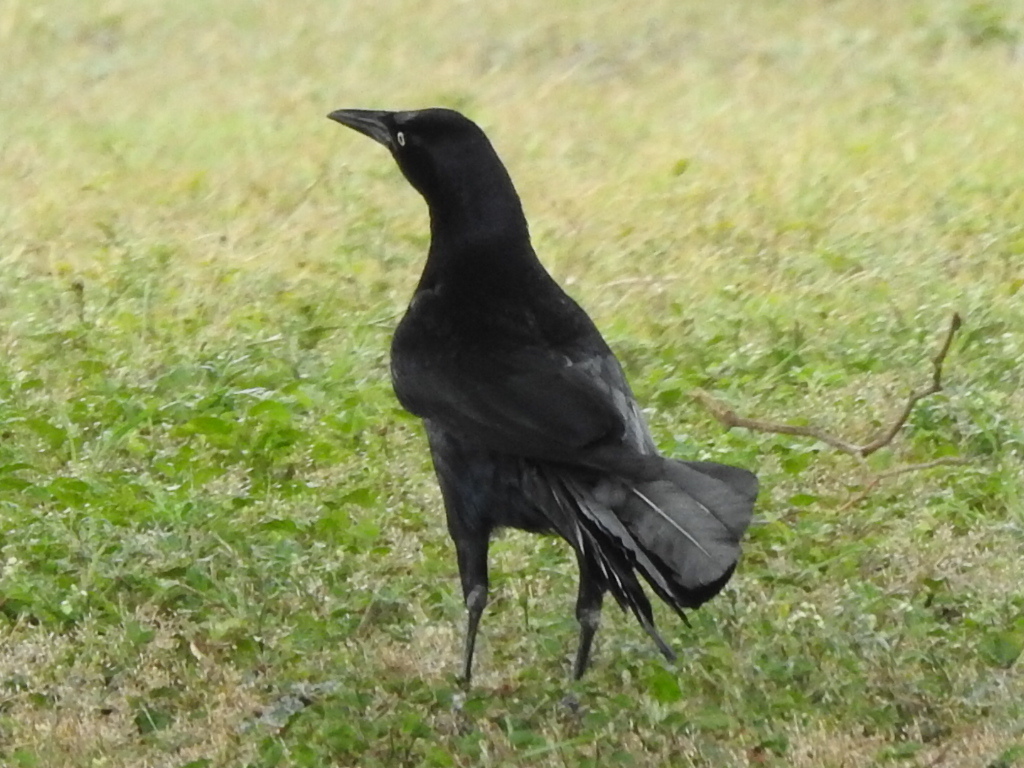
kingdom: Animalia
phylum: Chordata
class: Aves
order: Passeriformes
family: Icteridae
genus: Quiscalus
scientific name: Quiscalus mexicanus
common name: Great-tailed grackle
